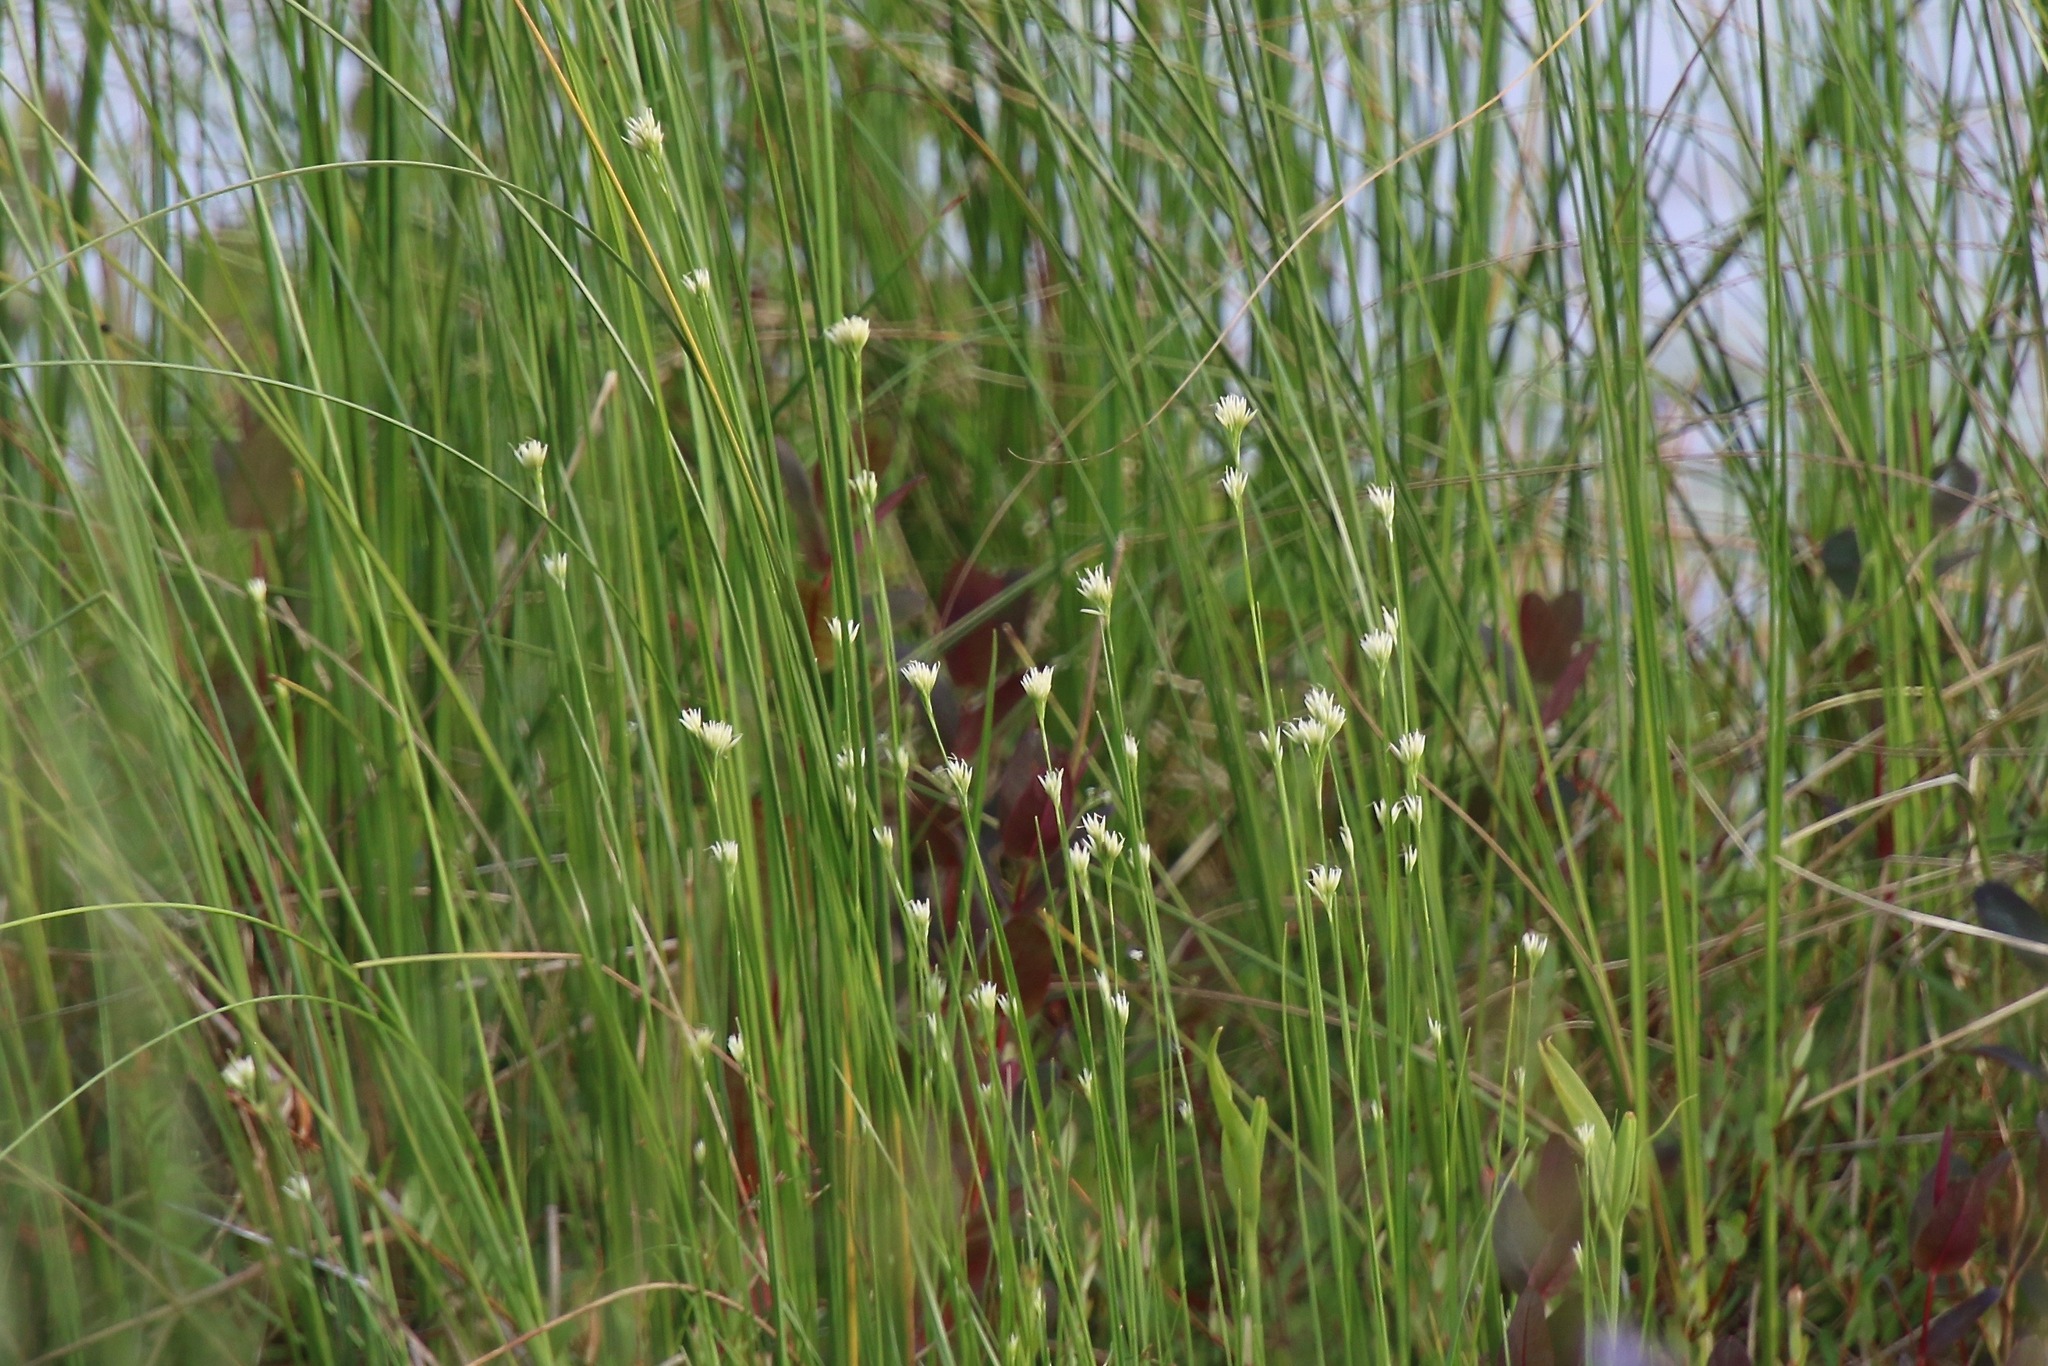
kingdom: Plantae
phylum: Tracheophyta
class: Liliopsida
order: Poales
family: Cyperaceae
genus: Rhynchospora
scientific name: Rhynchospora alba
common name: White beak-sedge
